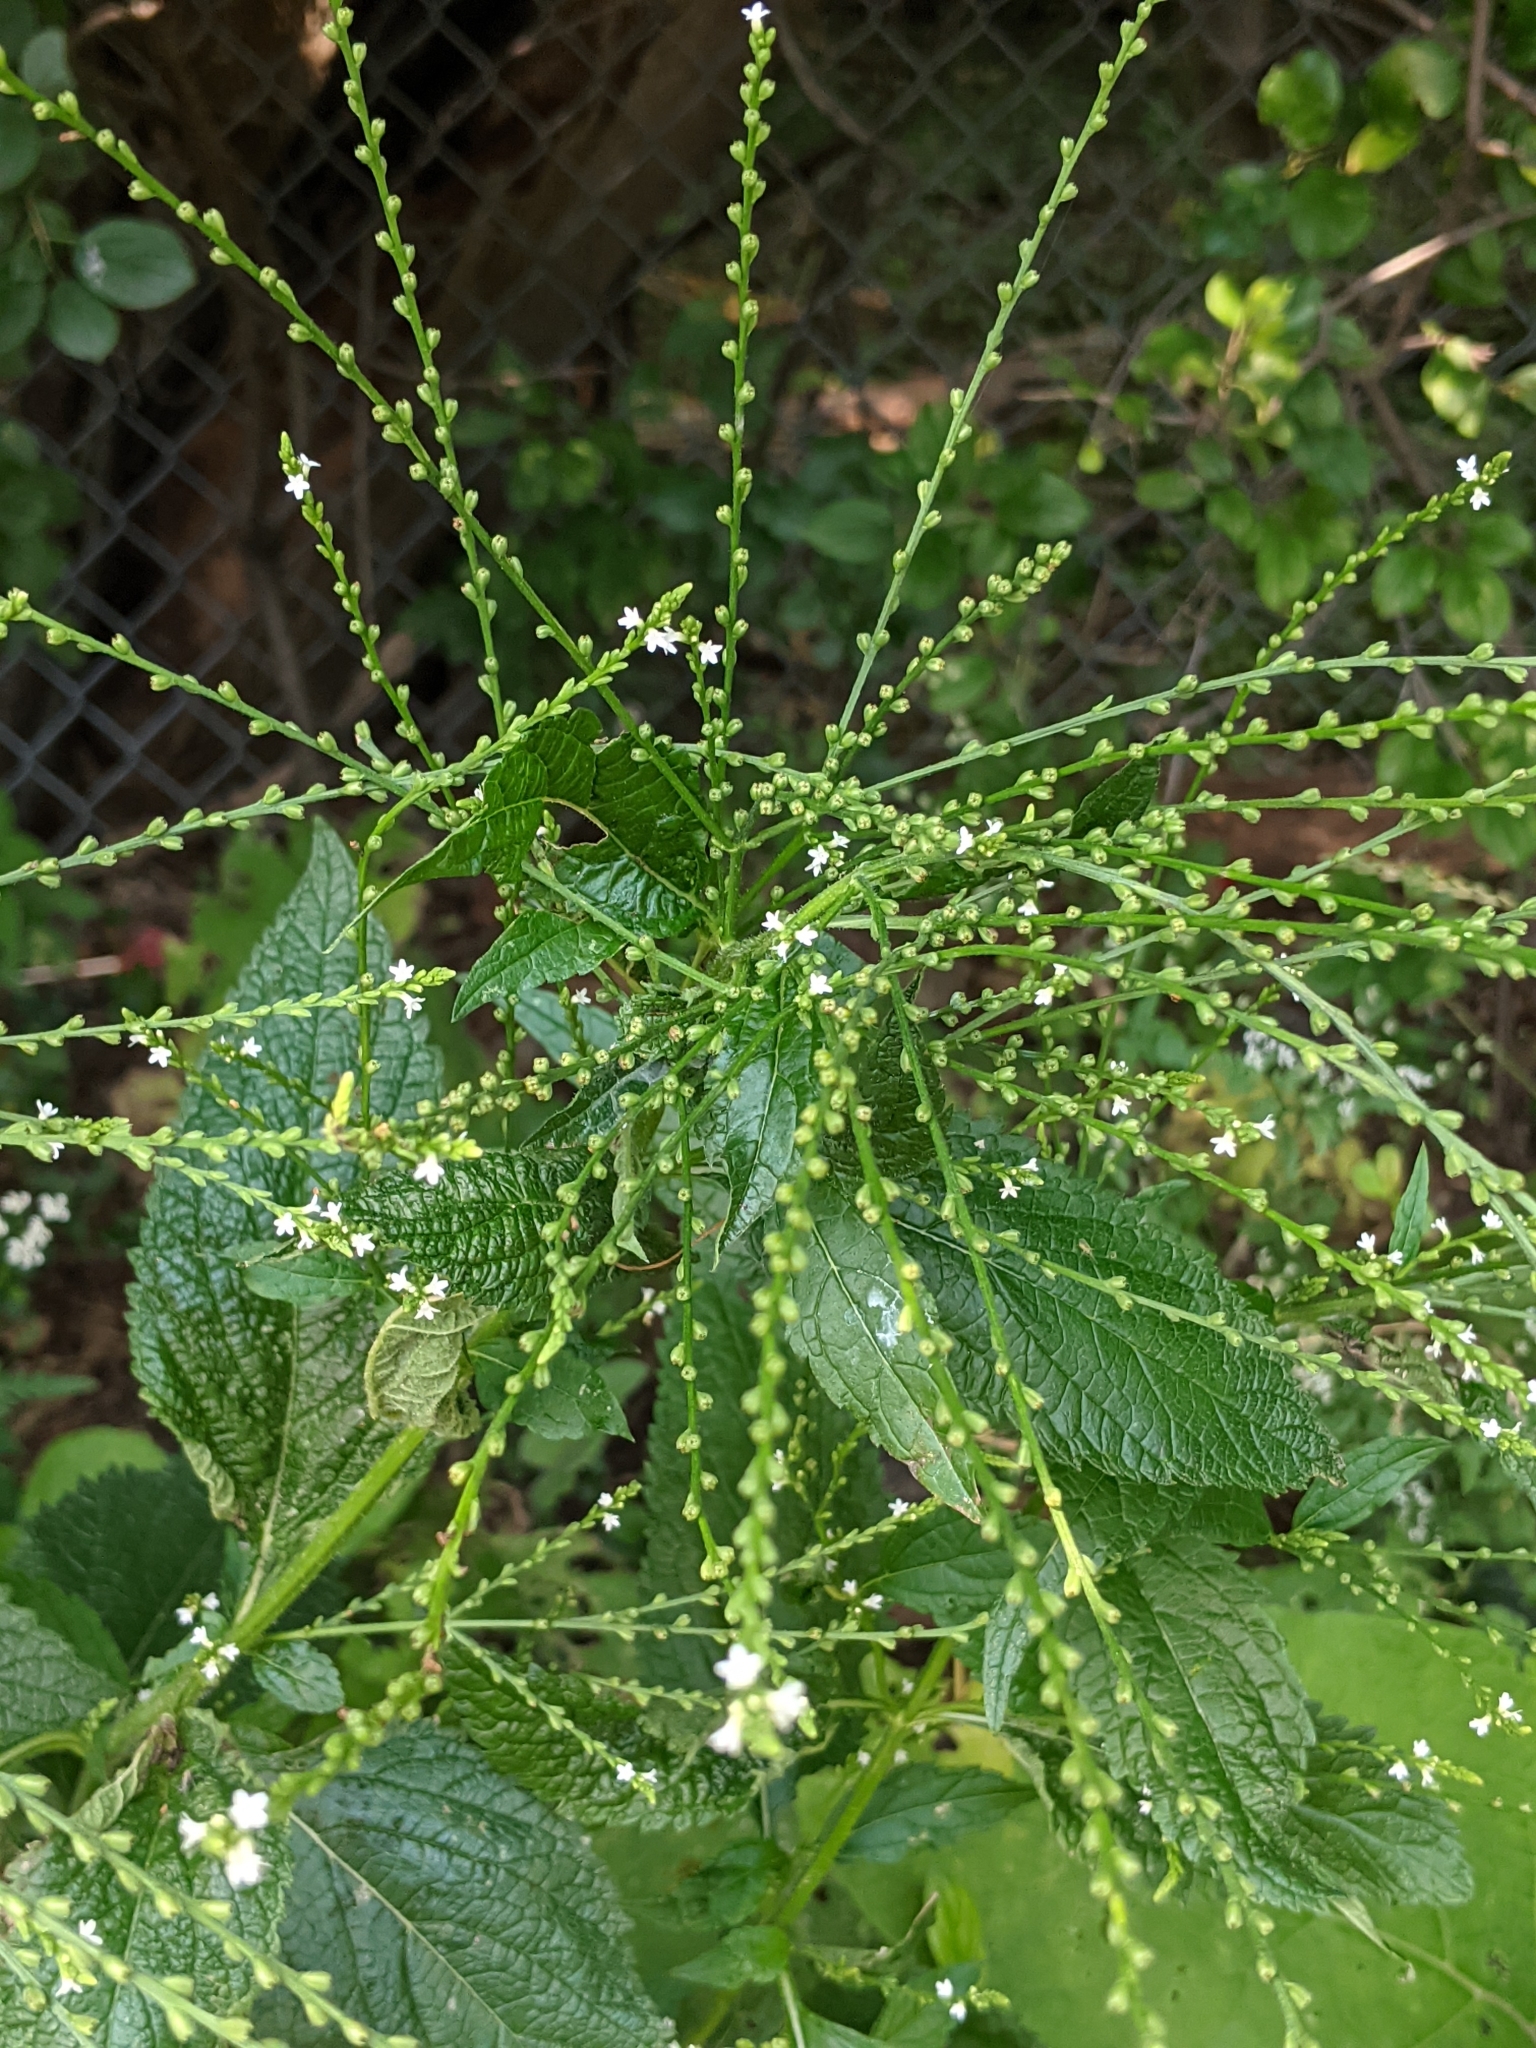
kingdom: Plantae
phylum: Tracheophyta
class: Magnoliopsida
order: Lamiales
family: Verbenaceae
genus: Verbena
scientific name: Verbena urticifolia
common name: Nettle-leaved vervain
